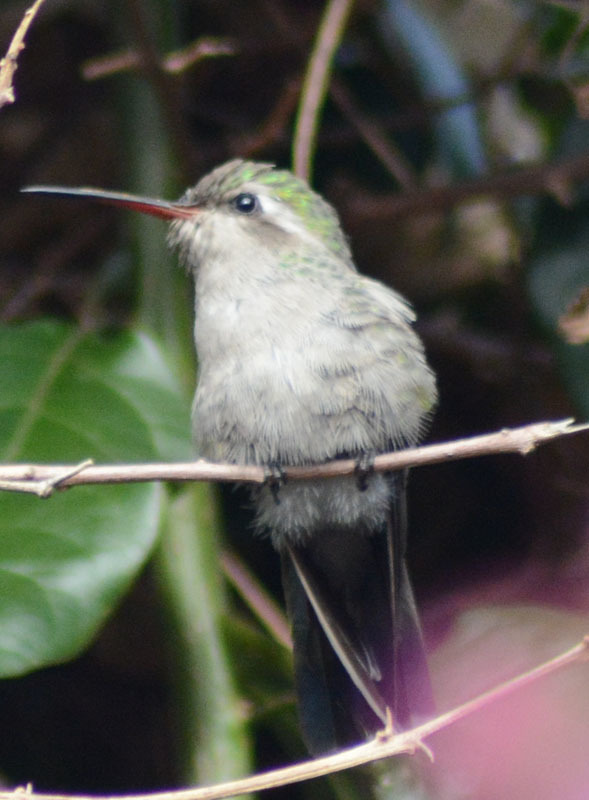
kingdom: Animalia
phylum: Chordata
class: Aves
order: Apodiformes
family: Trochilidae
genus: Cynanthus
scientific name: Cynanthus latirostris
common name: Broad-billed hummingbird
